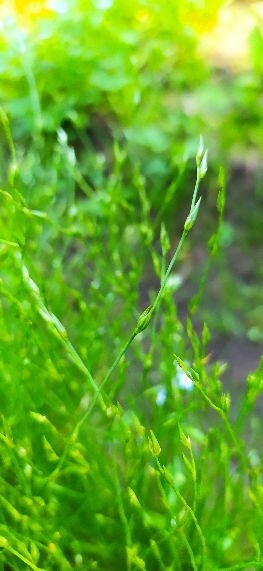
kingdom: Plantae
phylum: Tracheophyta
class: Liliopsida
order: Poales
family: Juncaceae
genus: Juncus
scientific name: Juncus bufonius
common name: Toad rush
